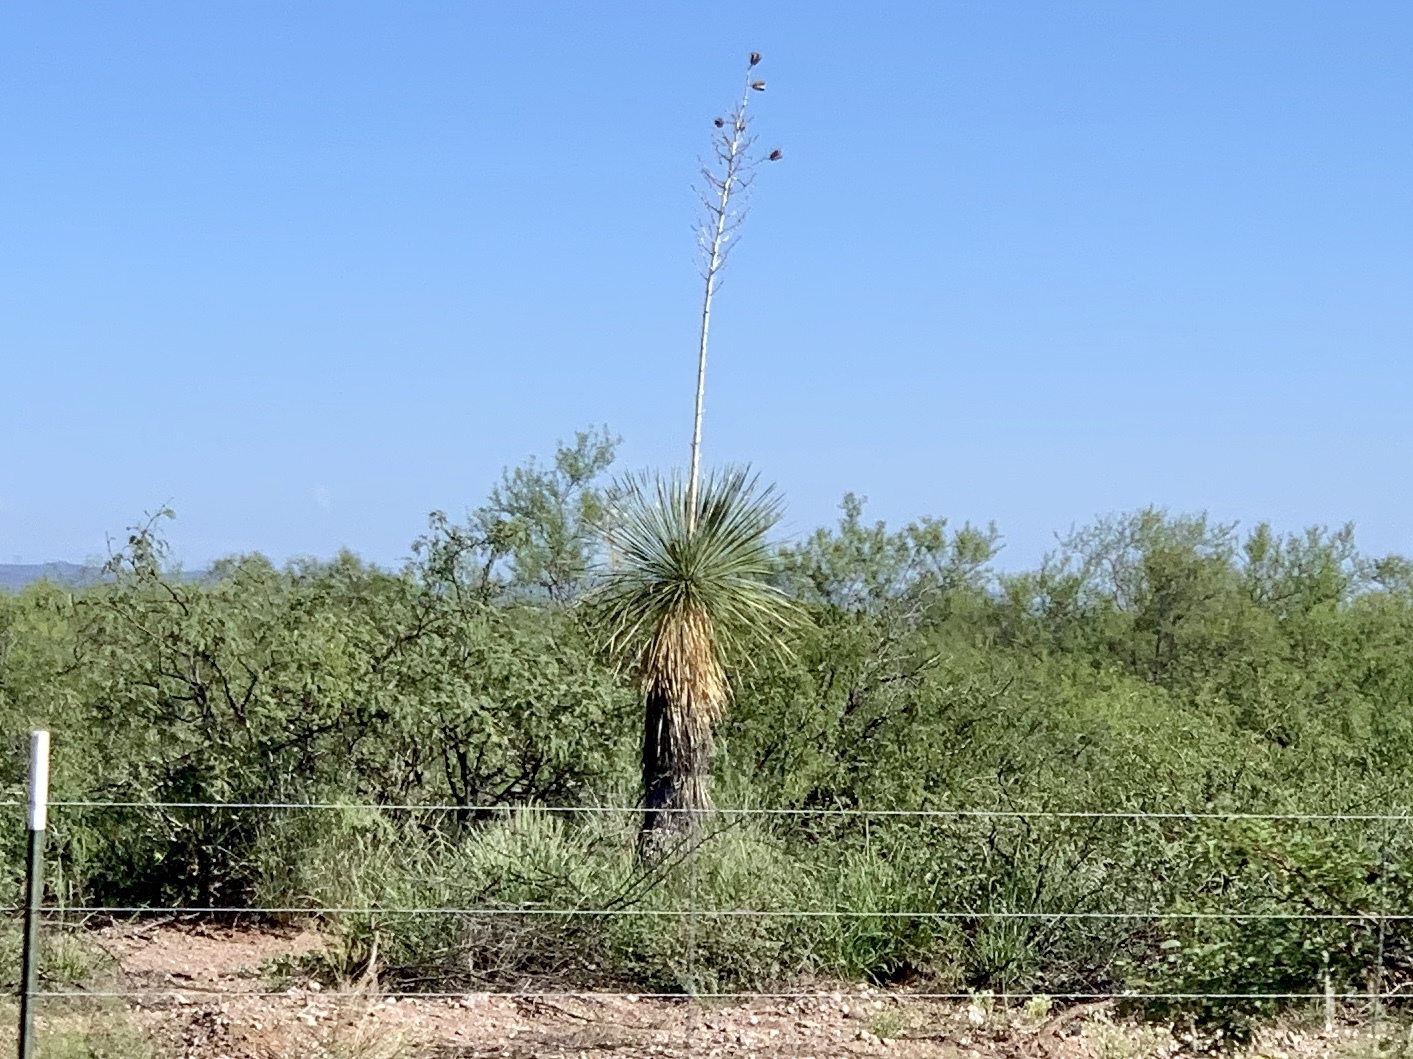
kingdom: Plantae
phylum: Tracheophyta
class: Liliopsida
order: Asparagales
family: Asparagaceae
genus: Yucca
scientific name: Yucca elata
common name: Palmella
